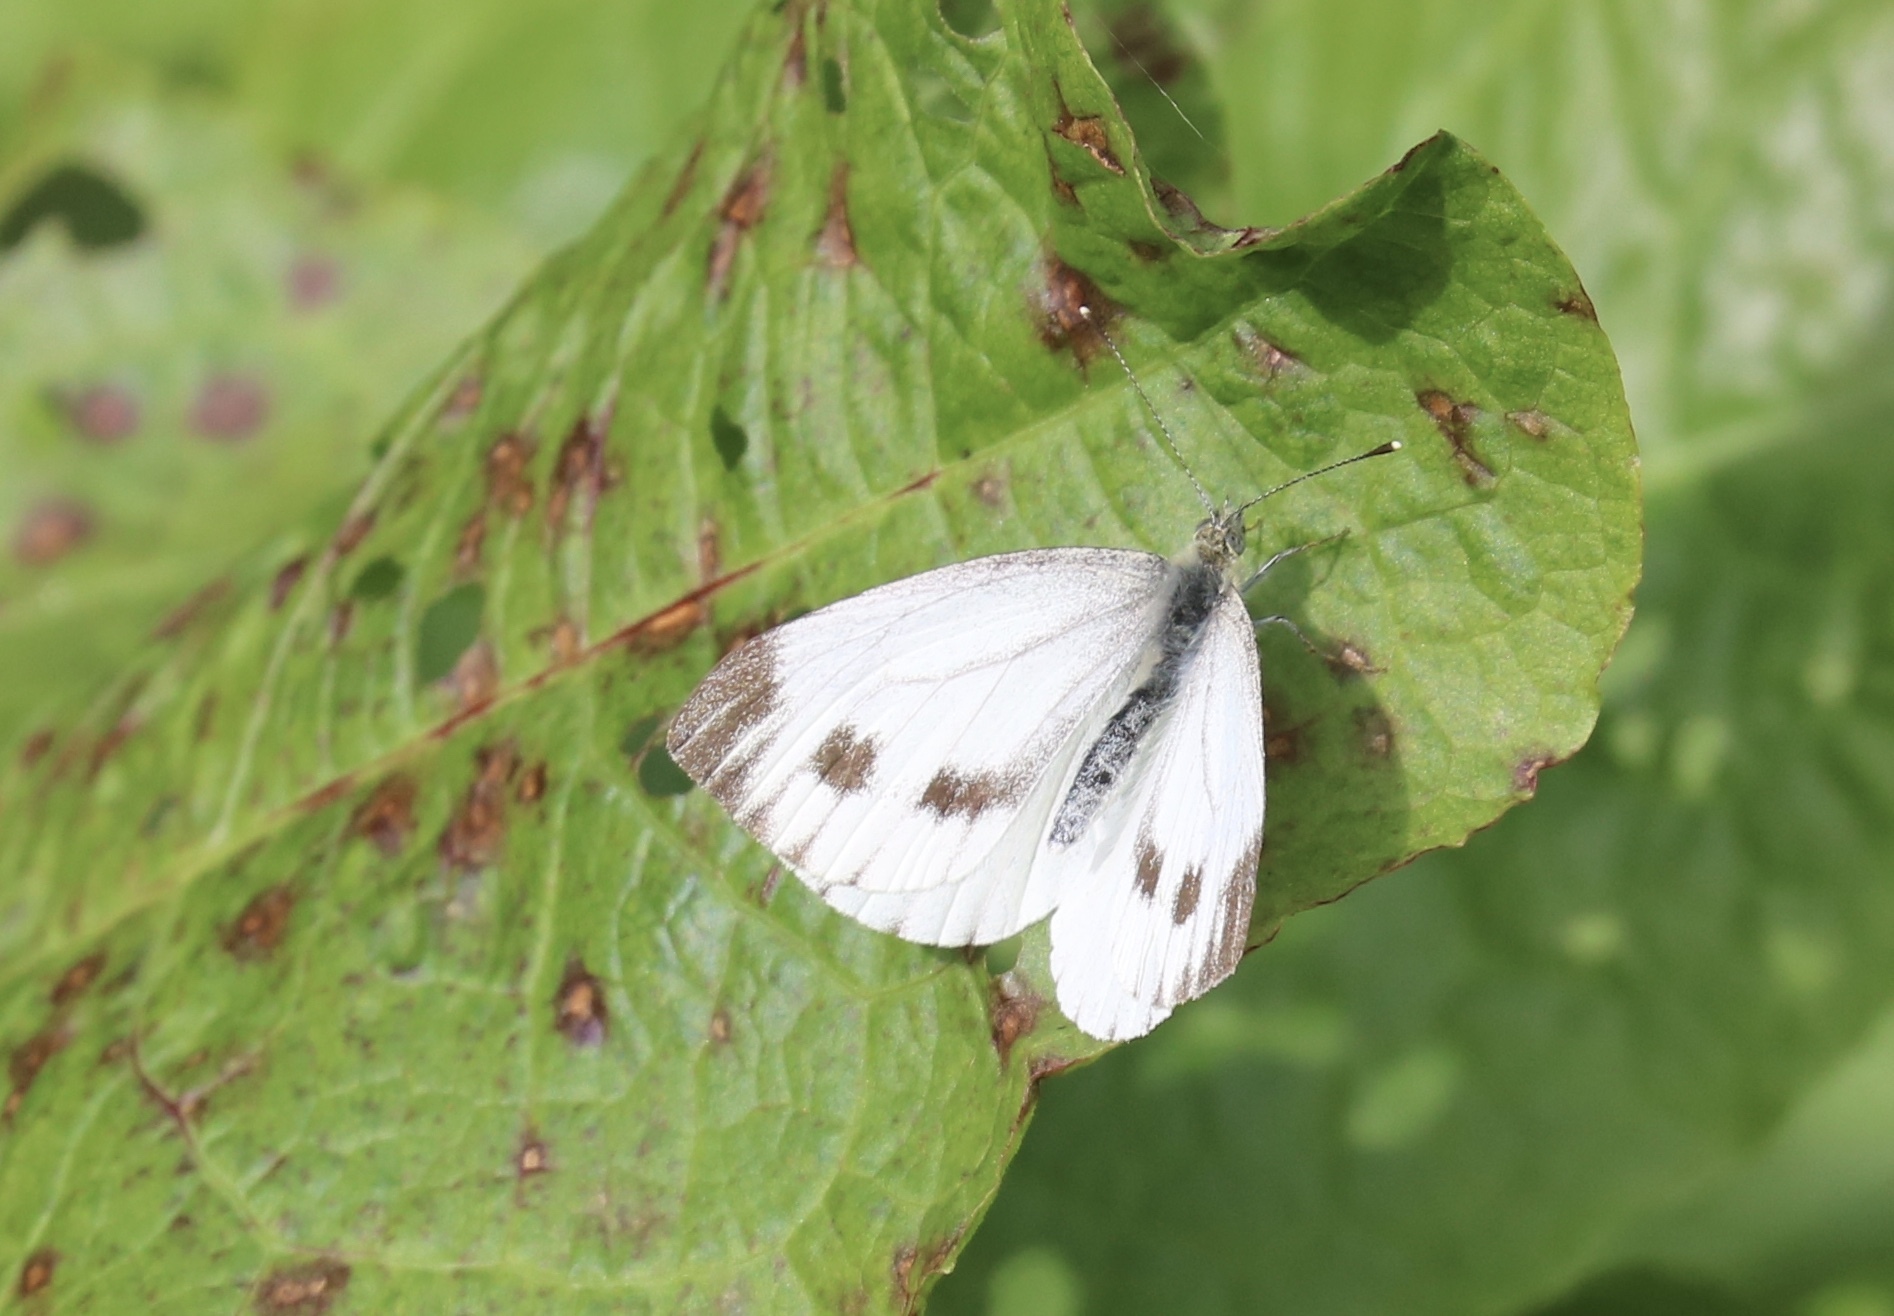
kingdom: Animalia
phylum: Arthropoda
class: Insecta
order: Lepidoptera
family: Pieridae
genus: Pieris
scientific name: Pieris napi
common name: Green-veined white
